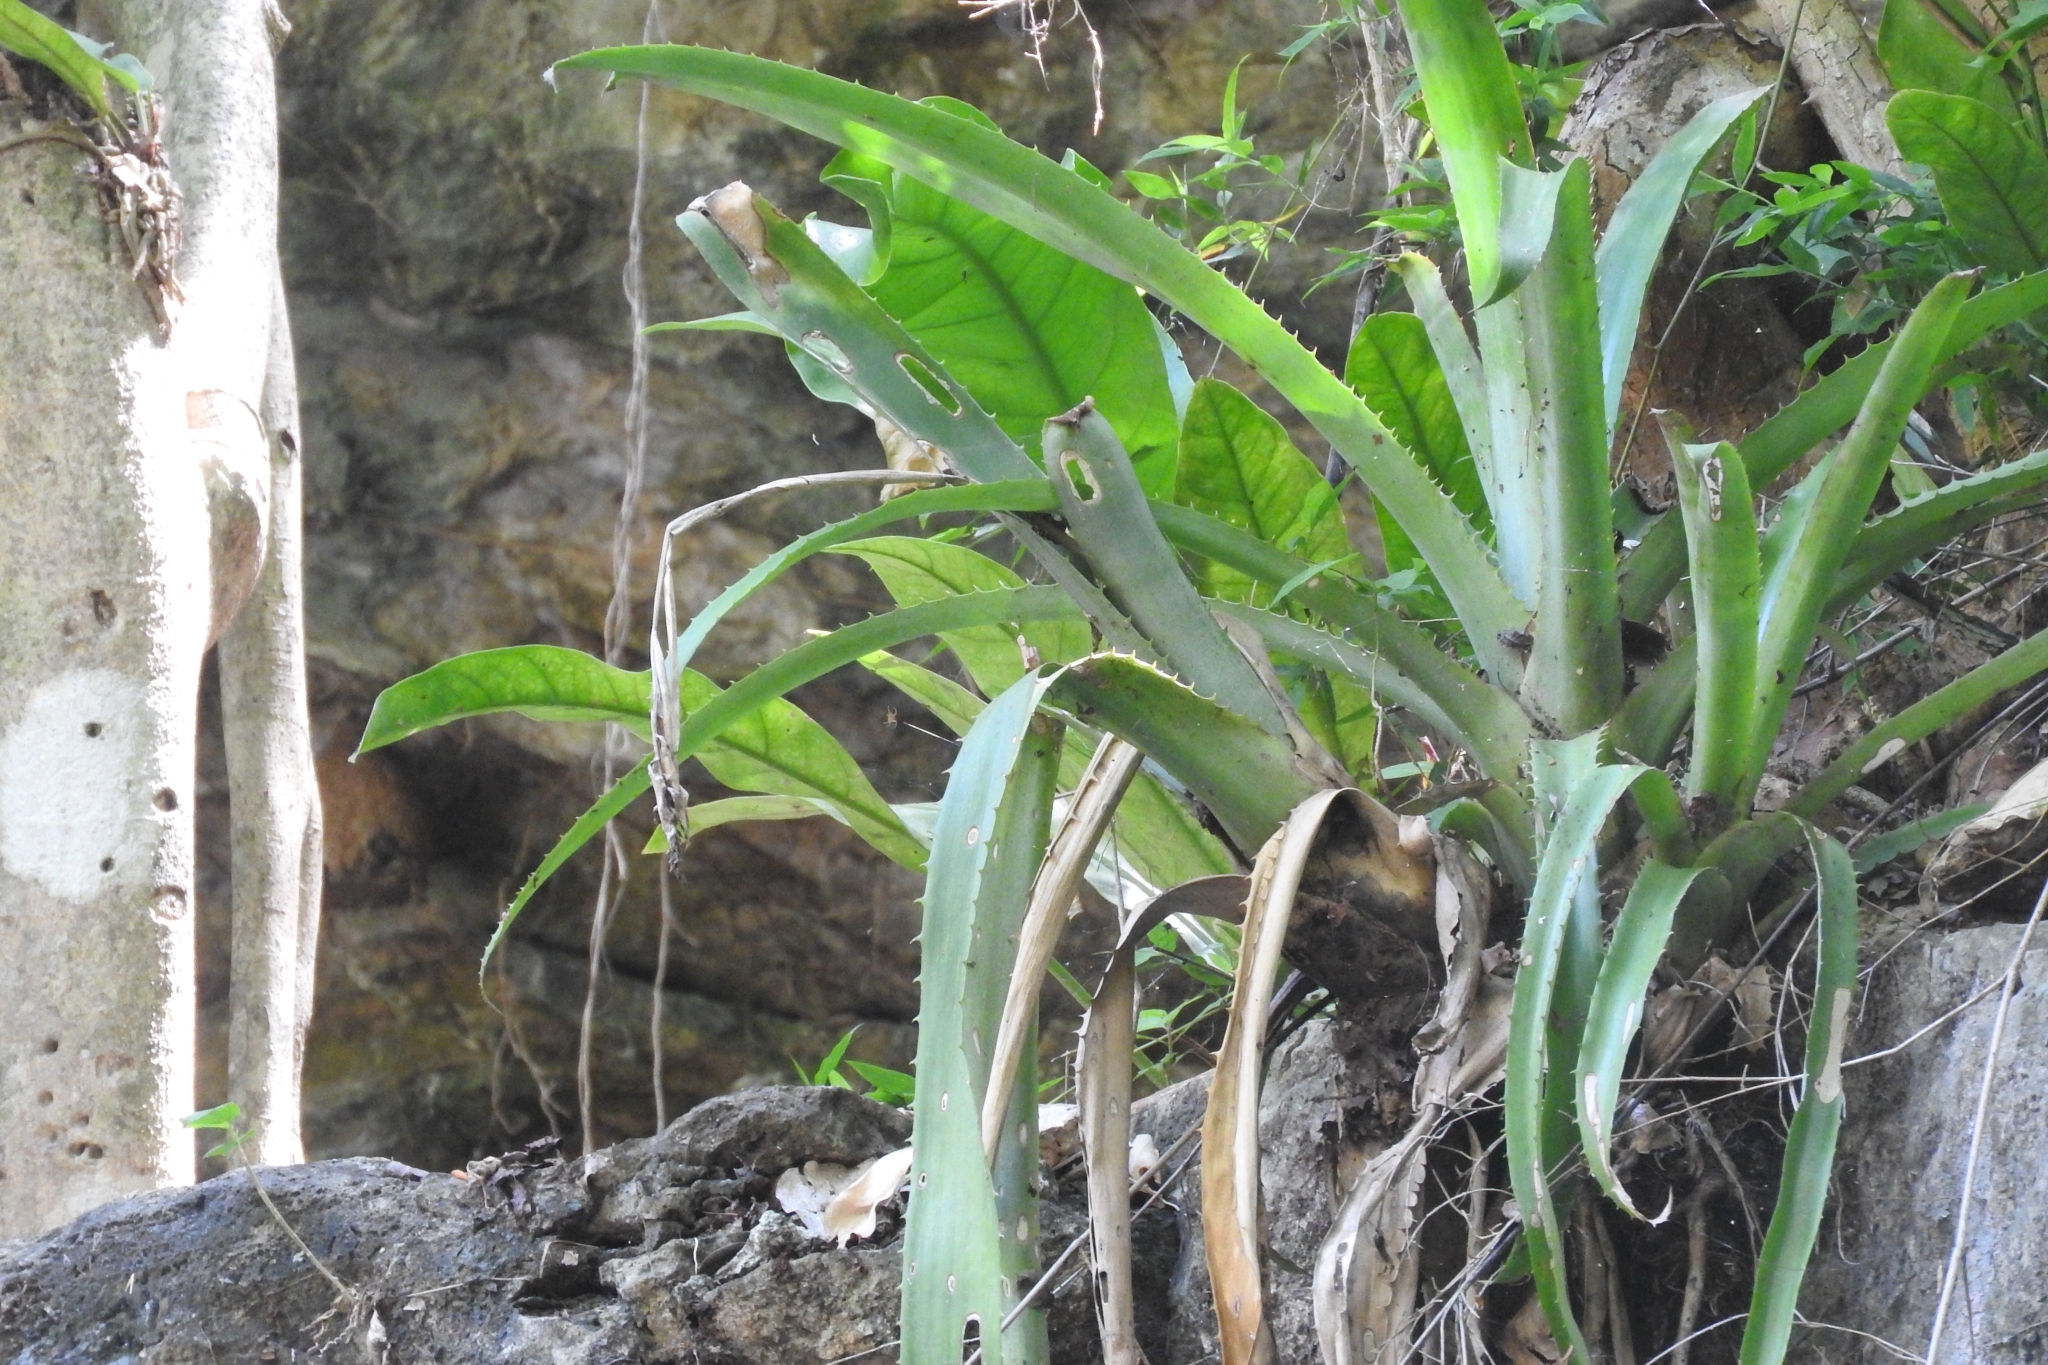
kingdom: Plantae
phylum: Tracheophyta
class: Liliopsida
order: Poales
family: Bromeliaceae
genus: Aechmea
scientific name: Aechmea bracteata
